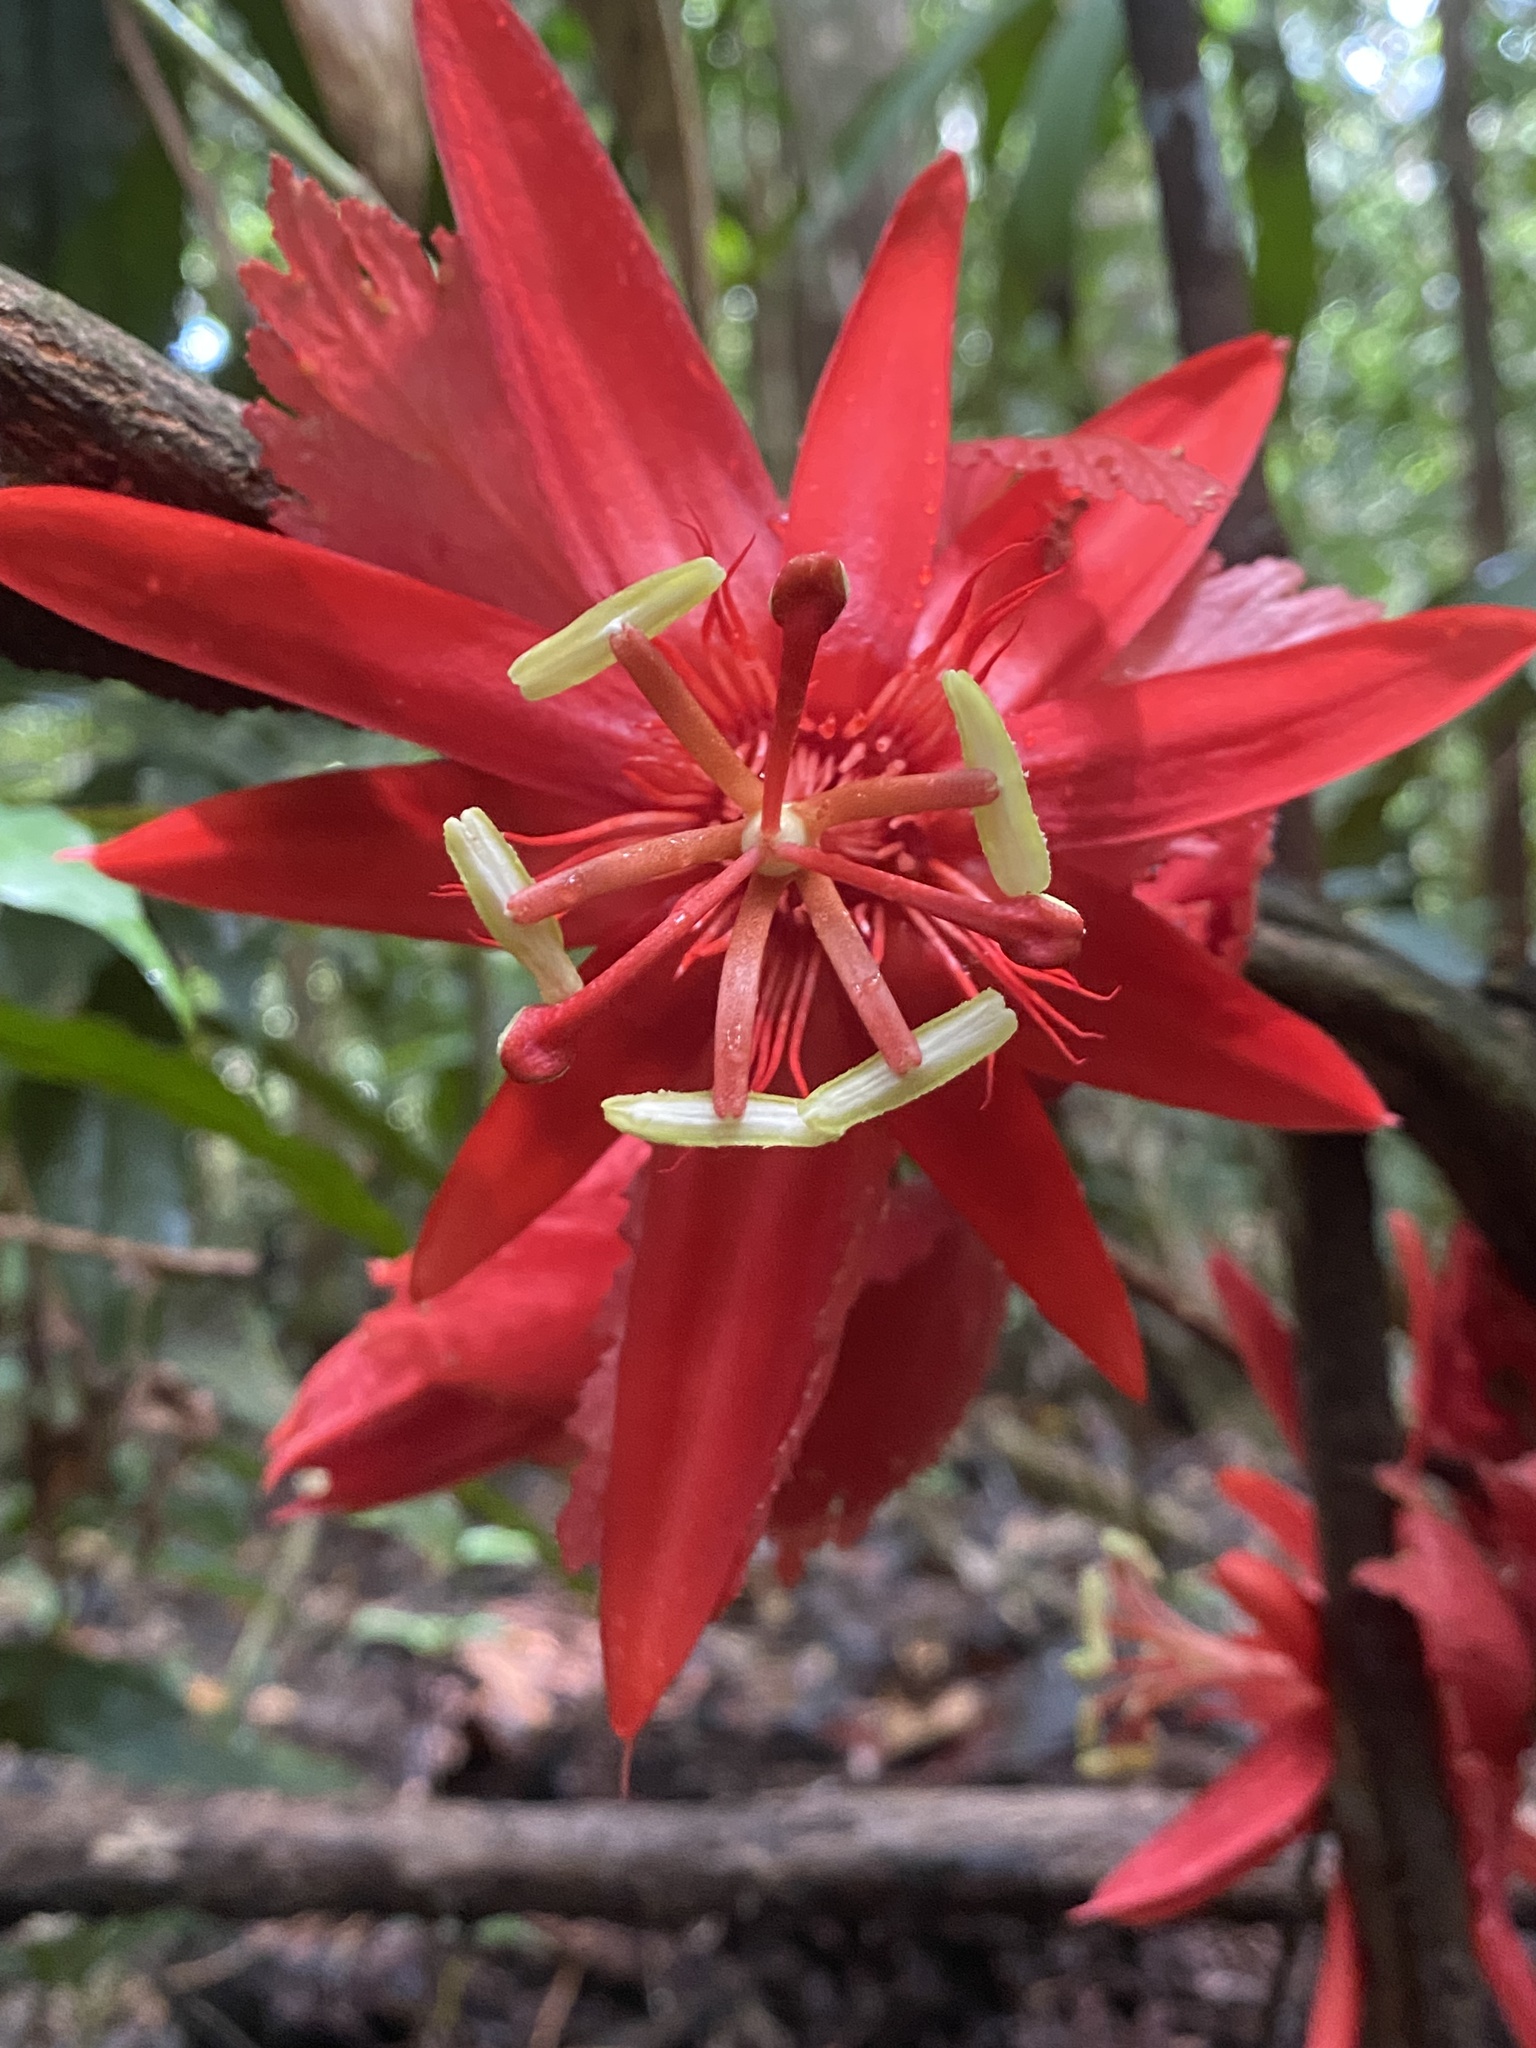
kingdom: Plantae
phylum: Tracheophyta
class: Magnoliopsida
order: Malpighiales
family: Passifloraceae
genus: Passiflora
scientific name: Passiflora involucrata
